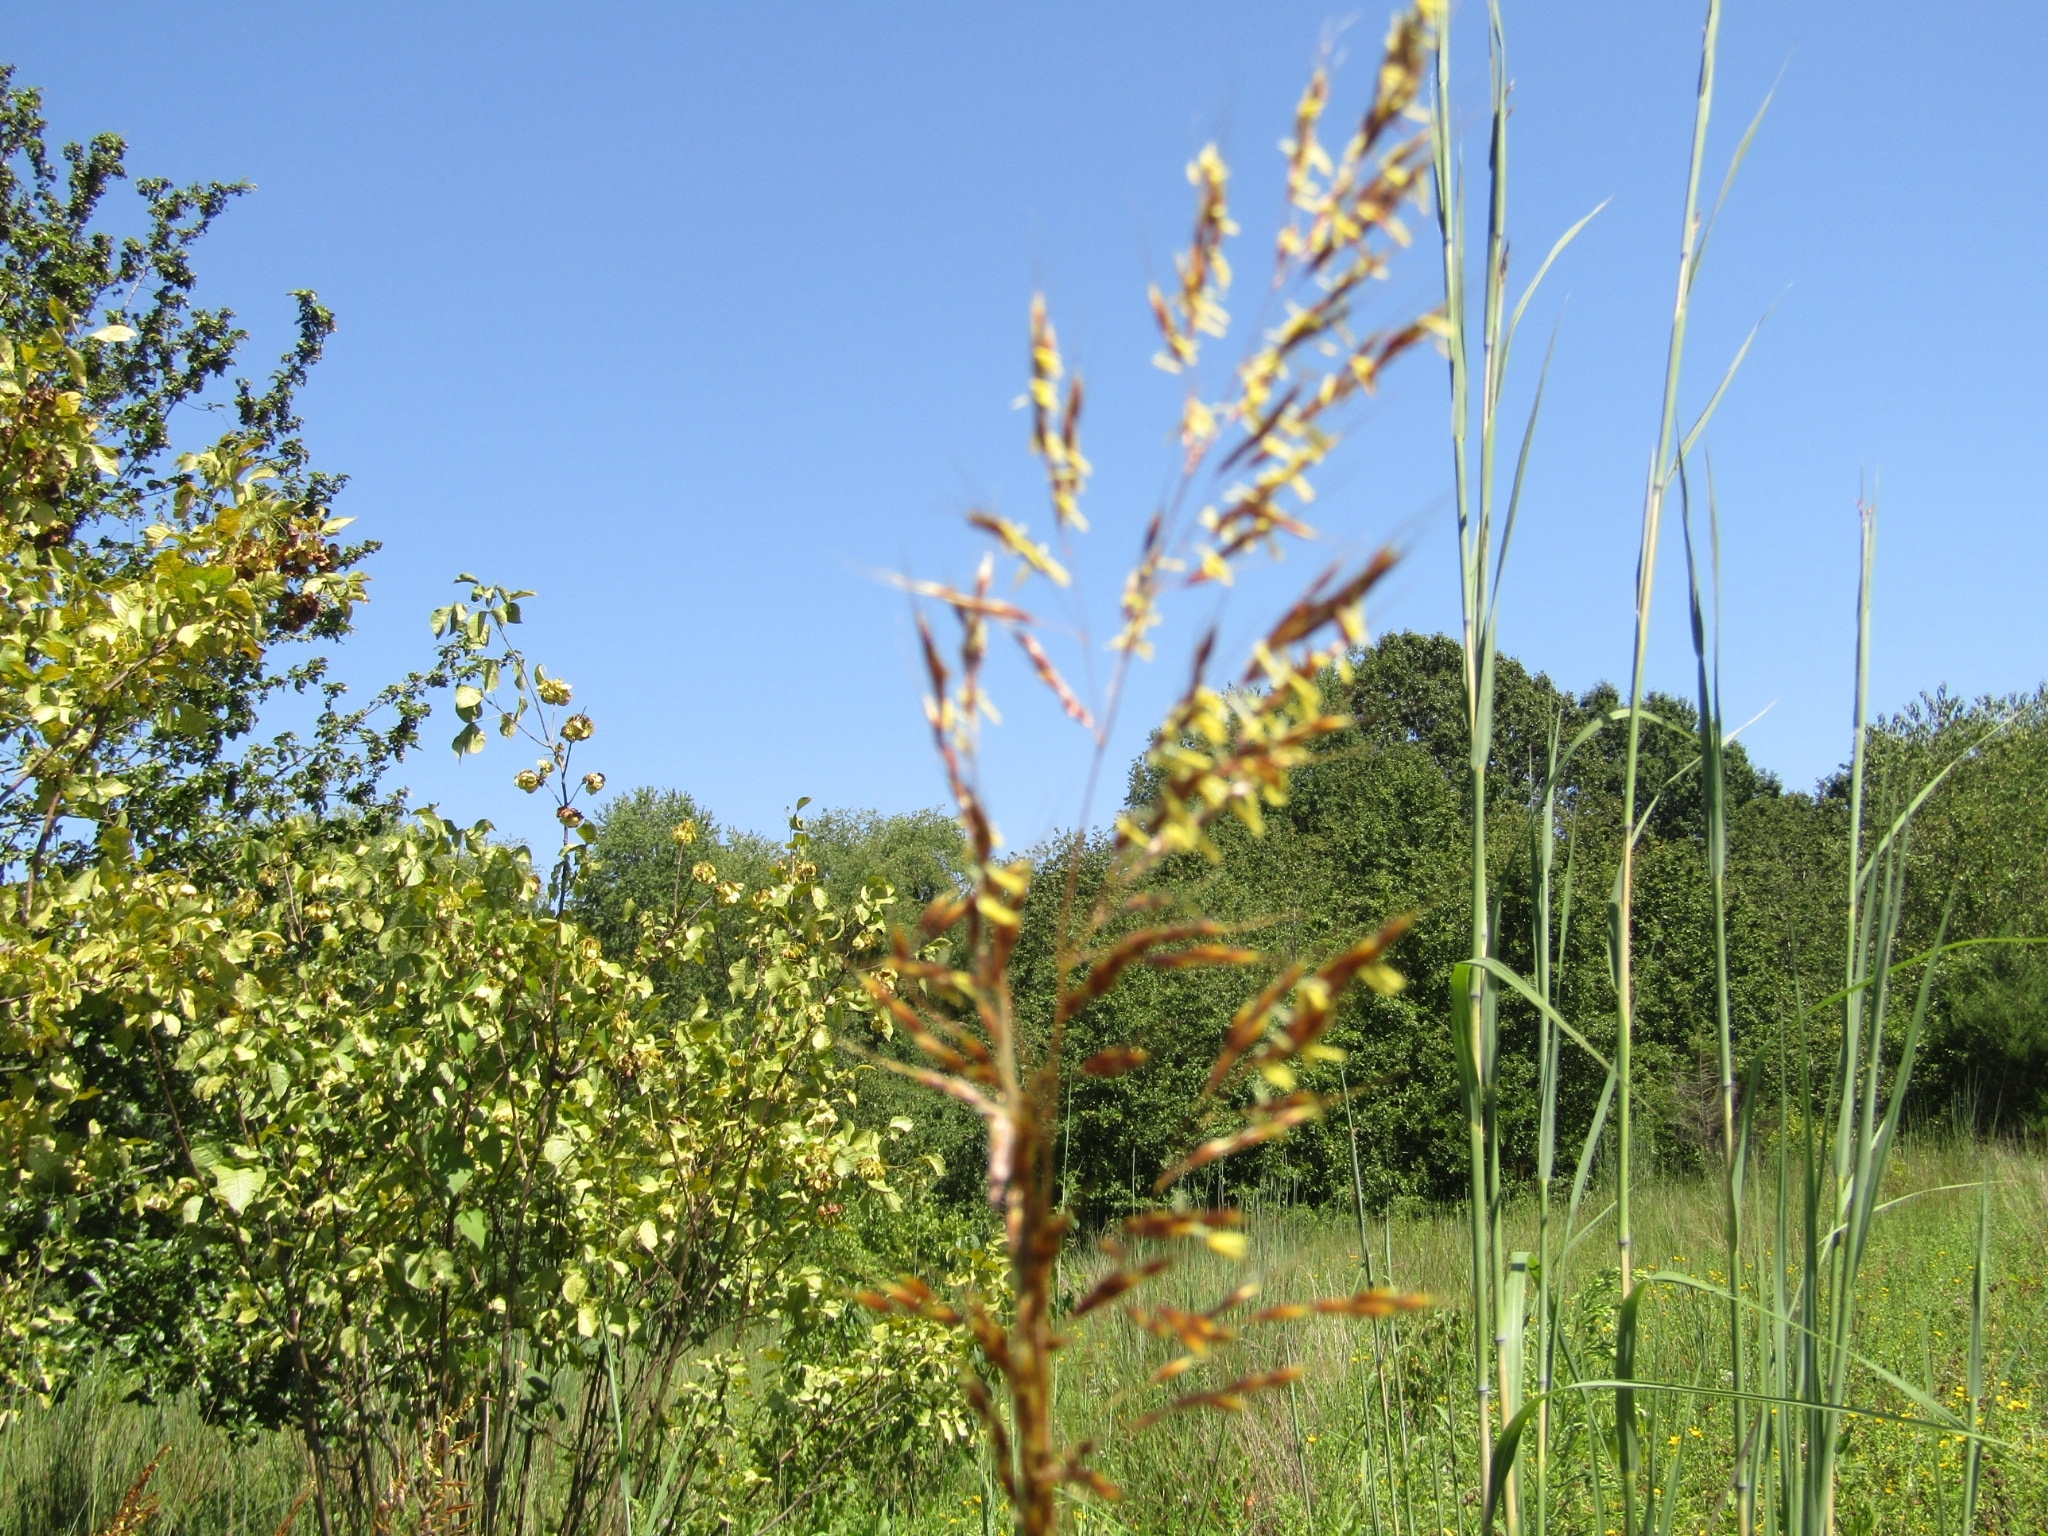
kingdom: Plantae
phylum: Tracheophyta
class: Liliopsida
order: Poales
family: Poaceae
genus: Sorghastrum
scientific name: Sorghastrum nutans
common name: Indian grass
